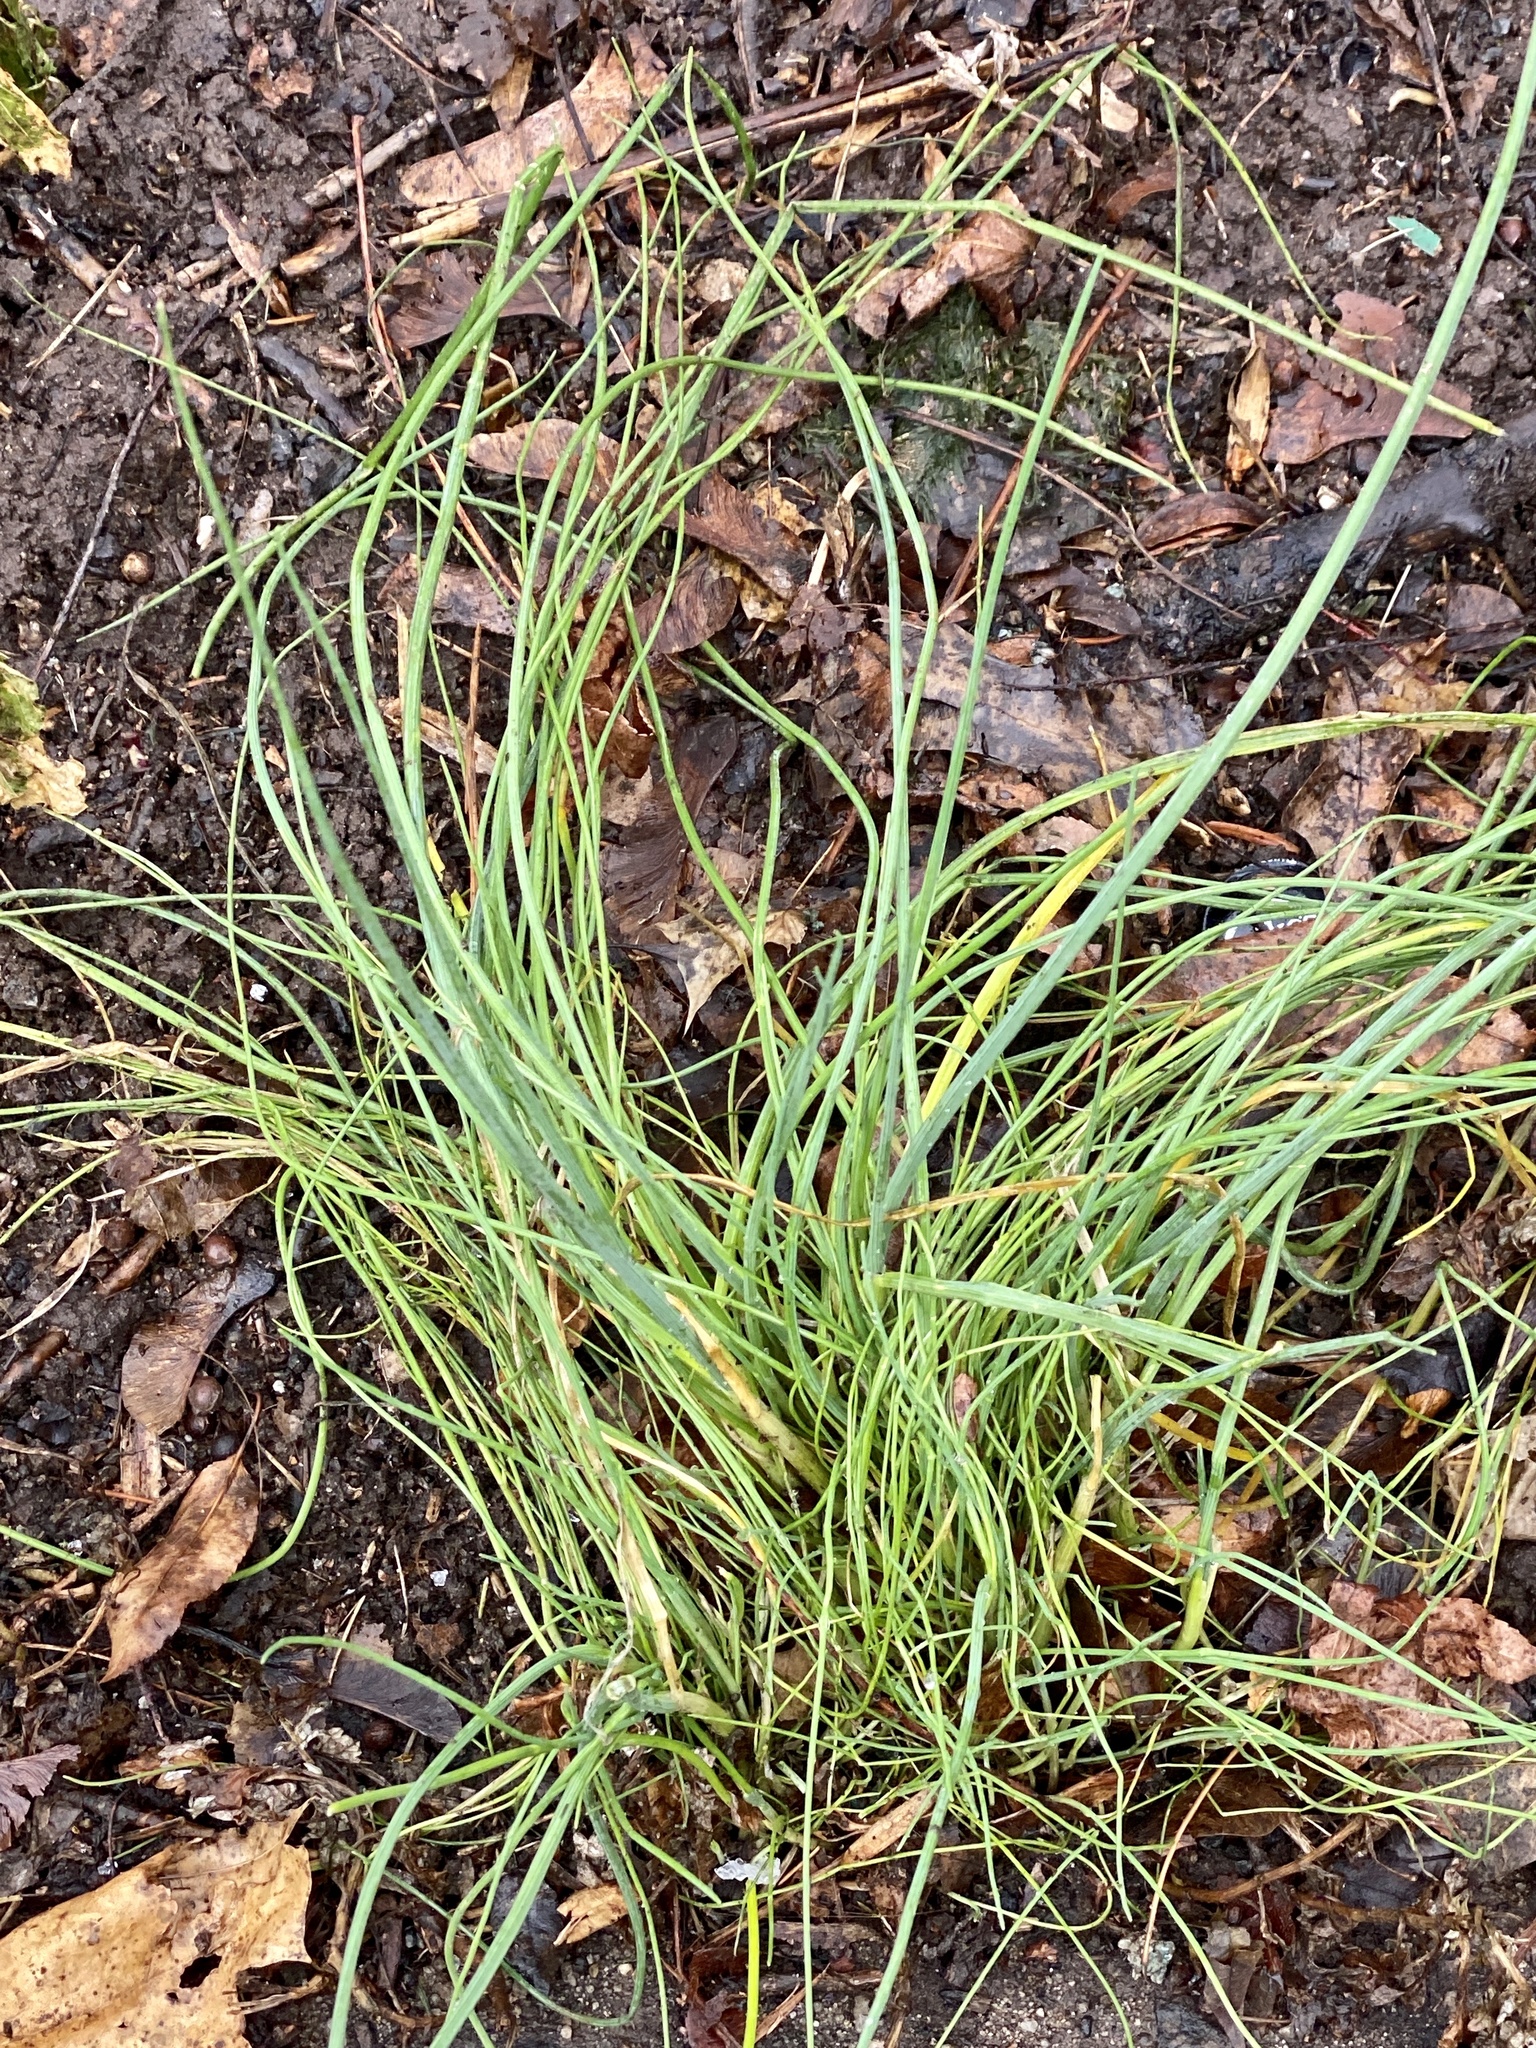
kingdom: Plantae
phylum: Tracheophyta
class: Liliopsida
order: Asparagales
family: Amaryllidaceae
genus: Allium
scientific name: Allium vineale
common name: Crow garlic
